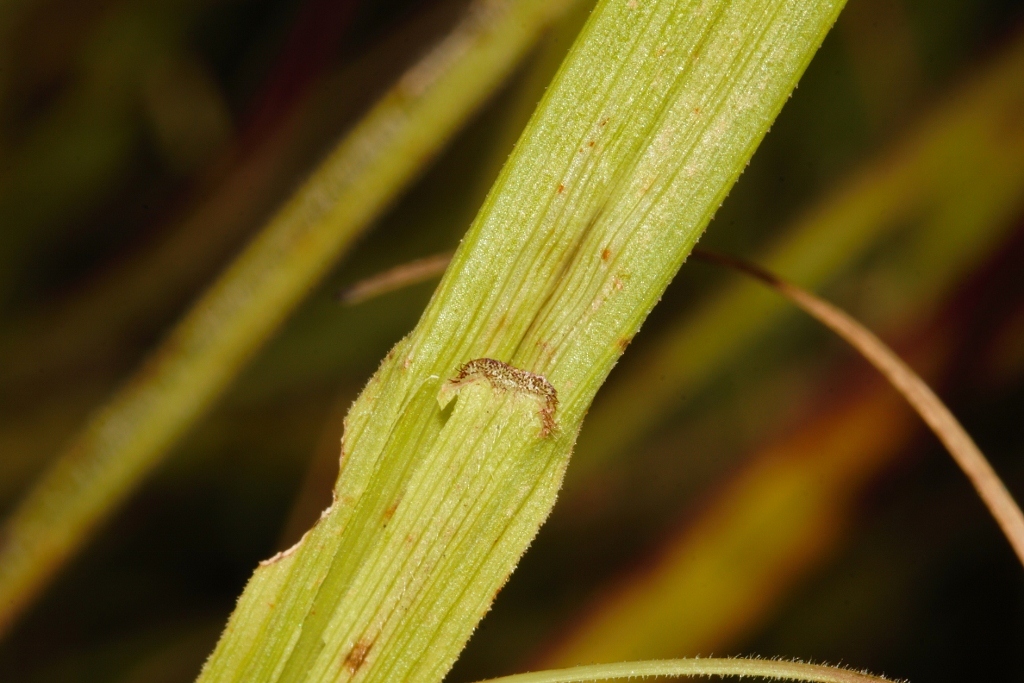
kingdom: Plantae
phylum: Tracheophyta
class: Liliopsida
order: Poales
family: Cyperaceae
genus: Scleria
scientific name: Scleria foliosa
